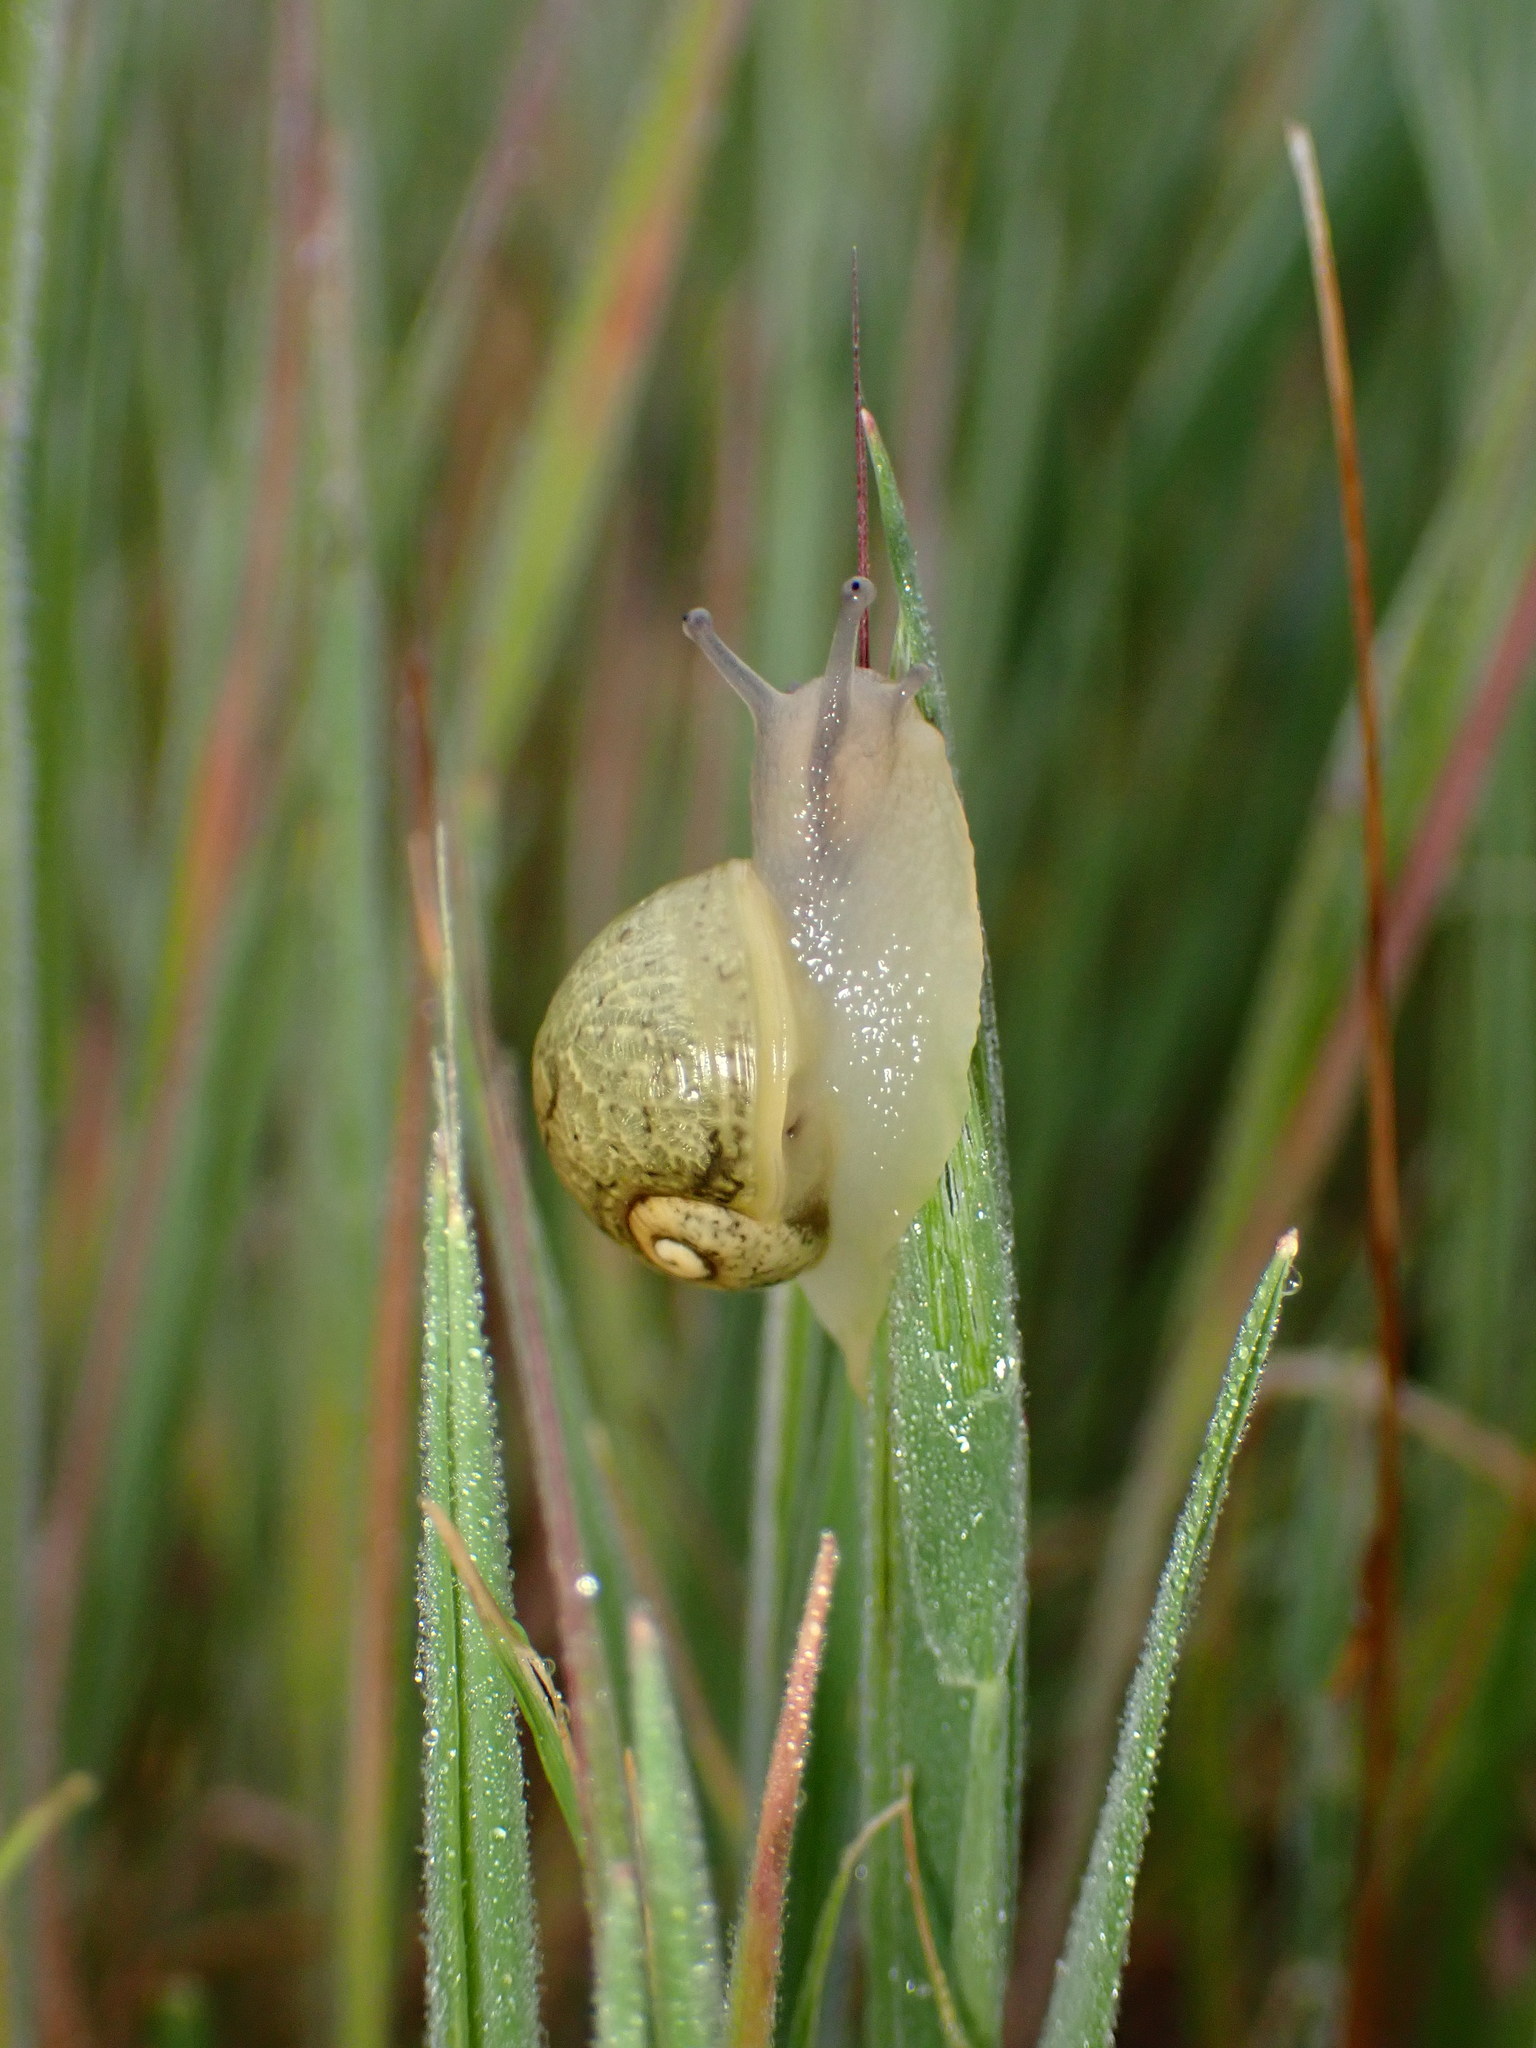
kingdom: Animalia
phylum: Mollusca
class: Gastropoda
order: Stylommatophora
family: Helicidae
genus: Cantareus
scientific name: Cantareus apertus
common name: Green gardensnail
